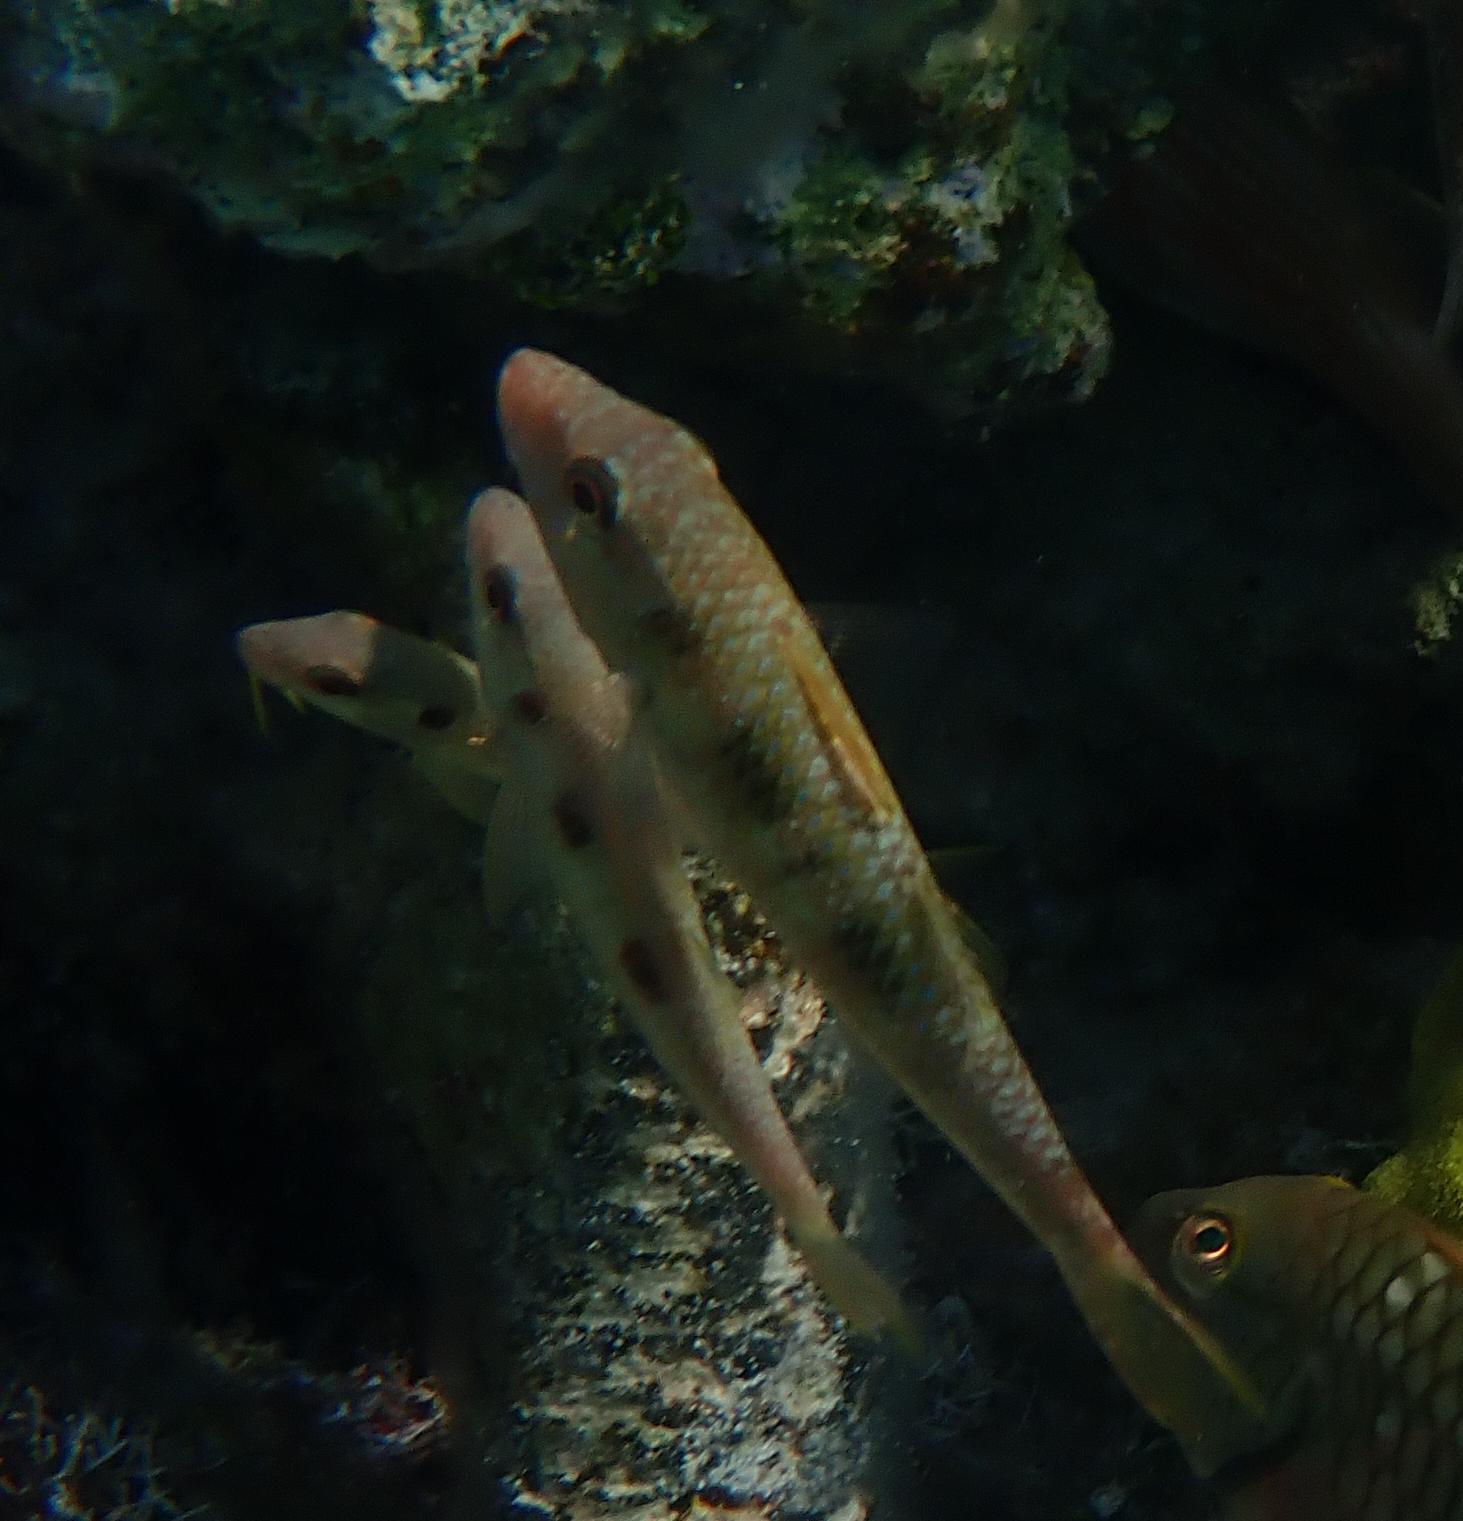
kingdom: Animalia
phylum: Chordata
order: Perciformes
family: Mullidae
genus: Pseudupeneus
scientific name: Pseudupeneus maculatus
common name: Spotted goatfish
